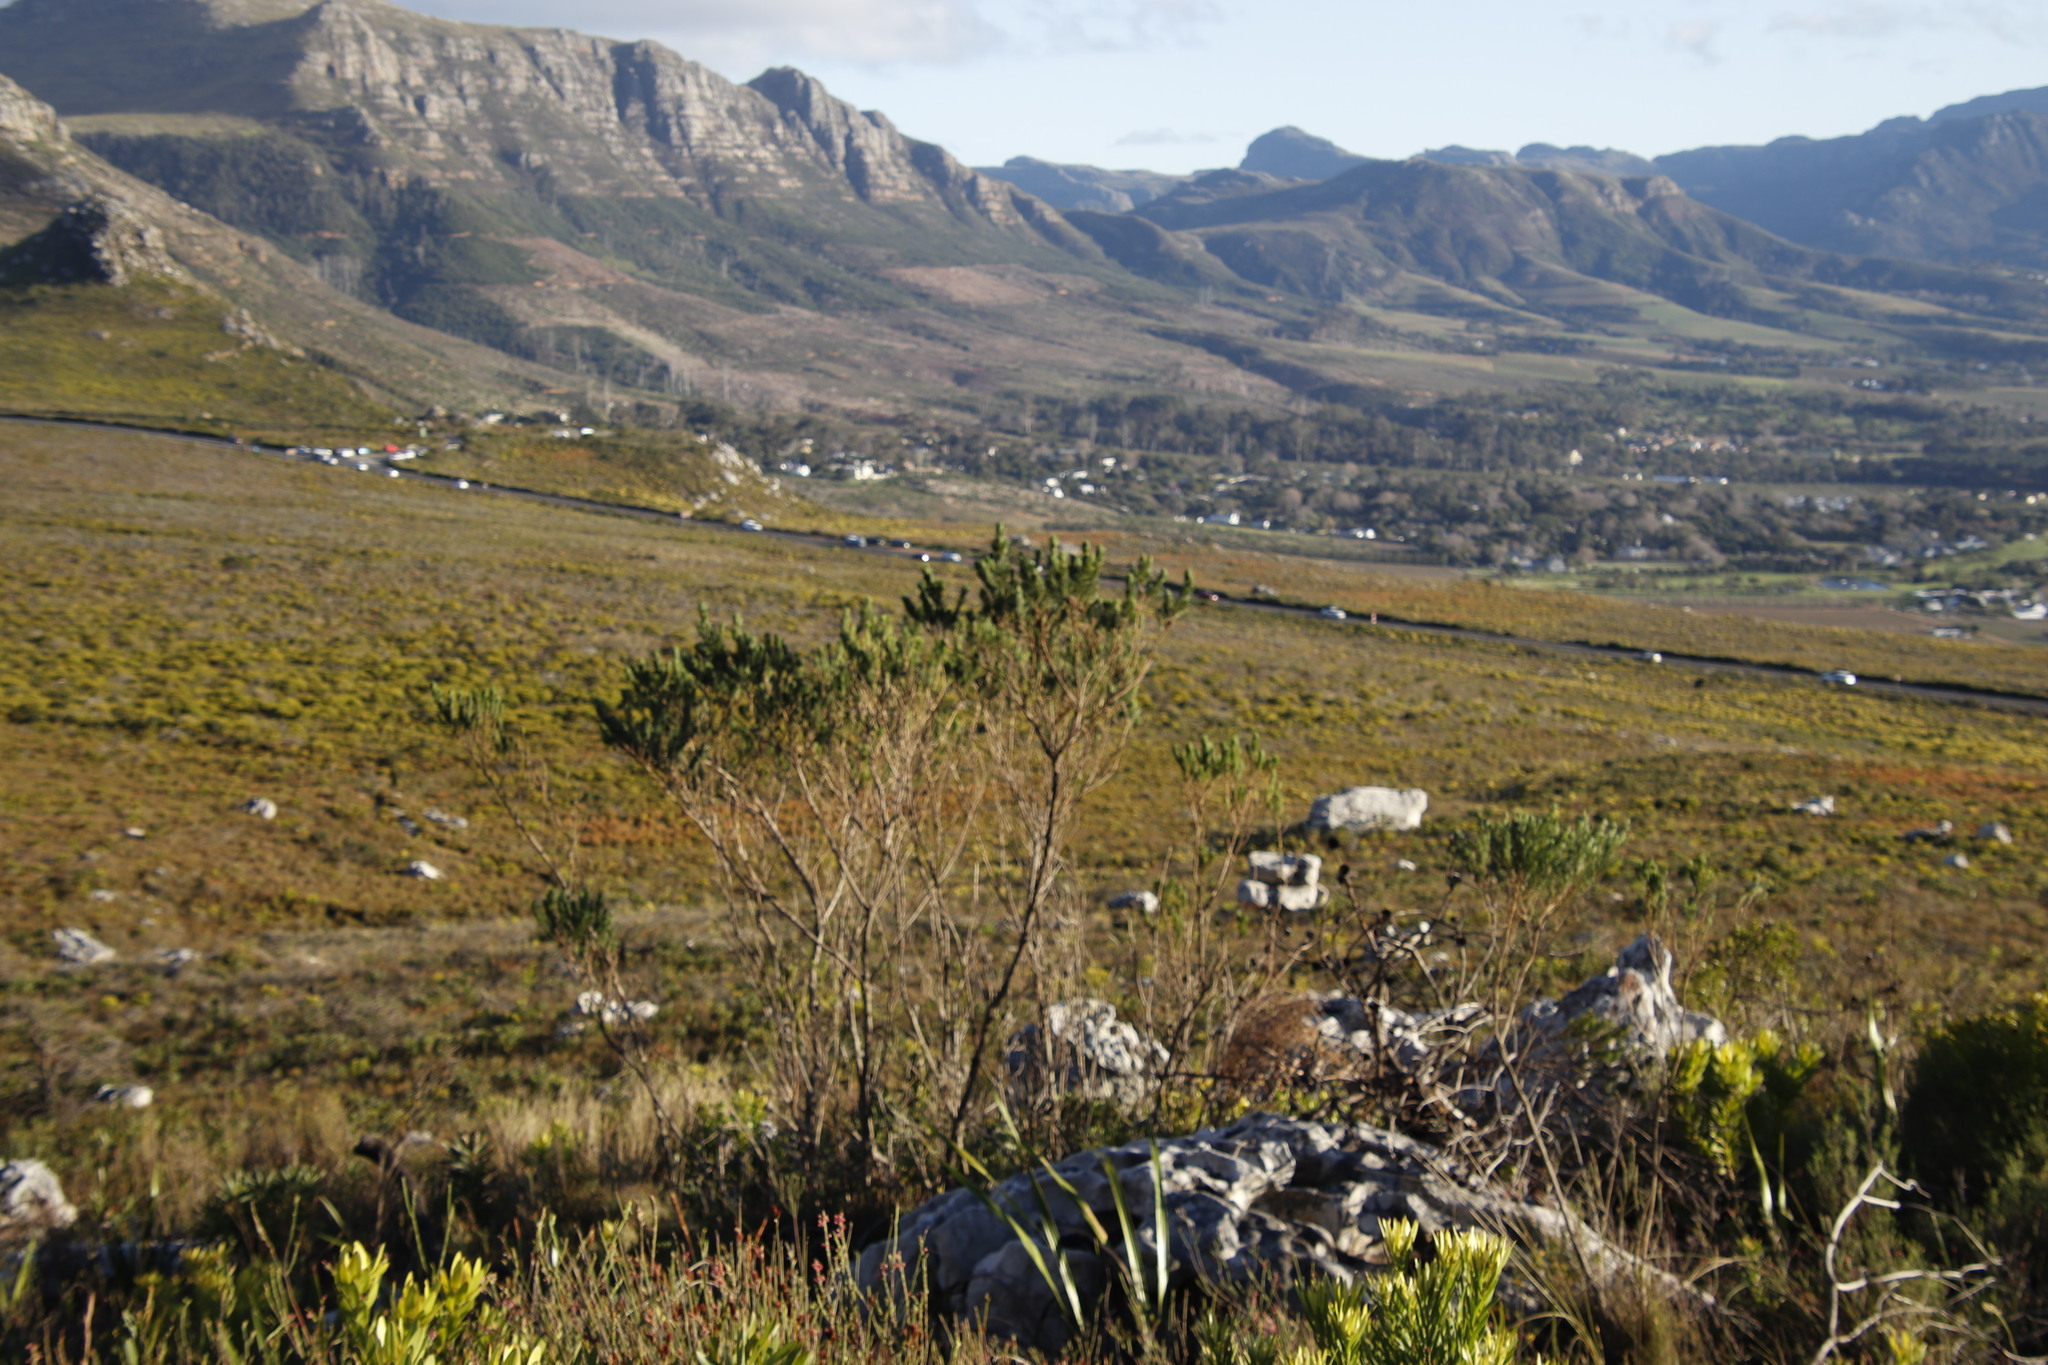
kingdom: Plantae
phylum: Tracheophyta
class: Magnoliopsida
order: Fabales
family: Fabaceae
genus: Psoralea
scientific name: Psoralea pinnata
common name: African scurfpea
